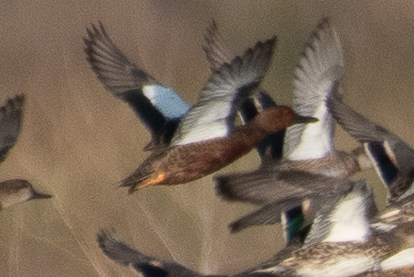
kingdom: Animalia
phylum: Chordata
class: Aves
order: Anseriformes
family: Anatidae
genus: Spatula
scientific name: Spatula cyanoptera
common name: Cinnamon teal
